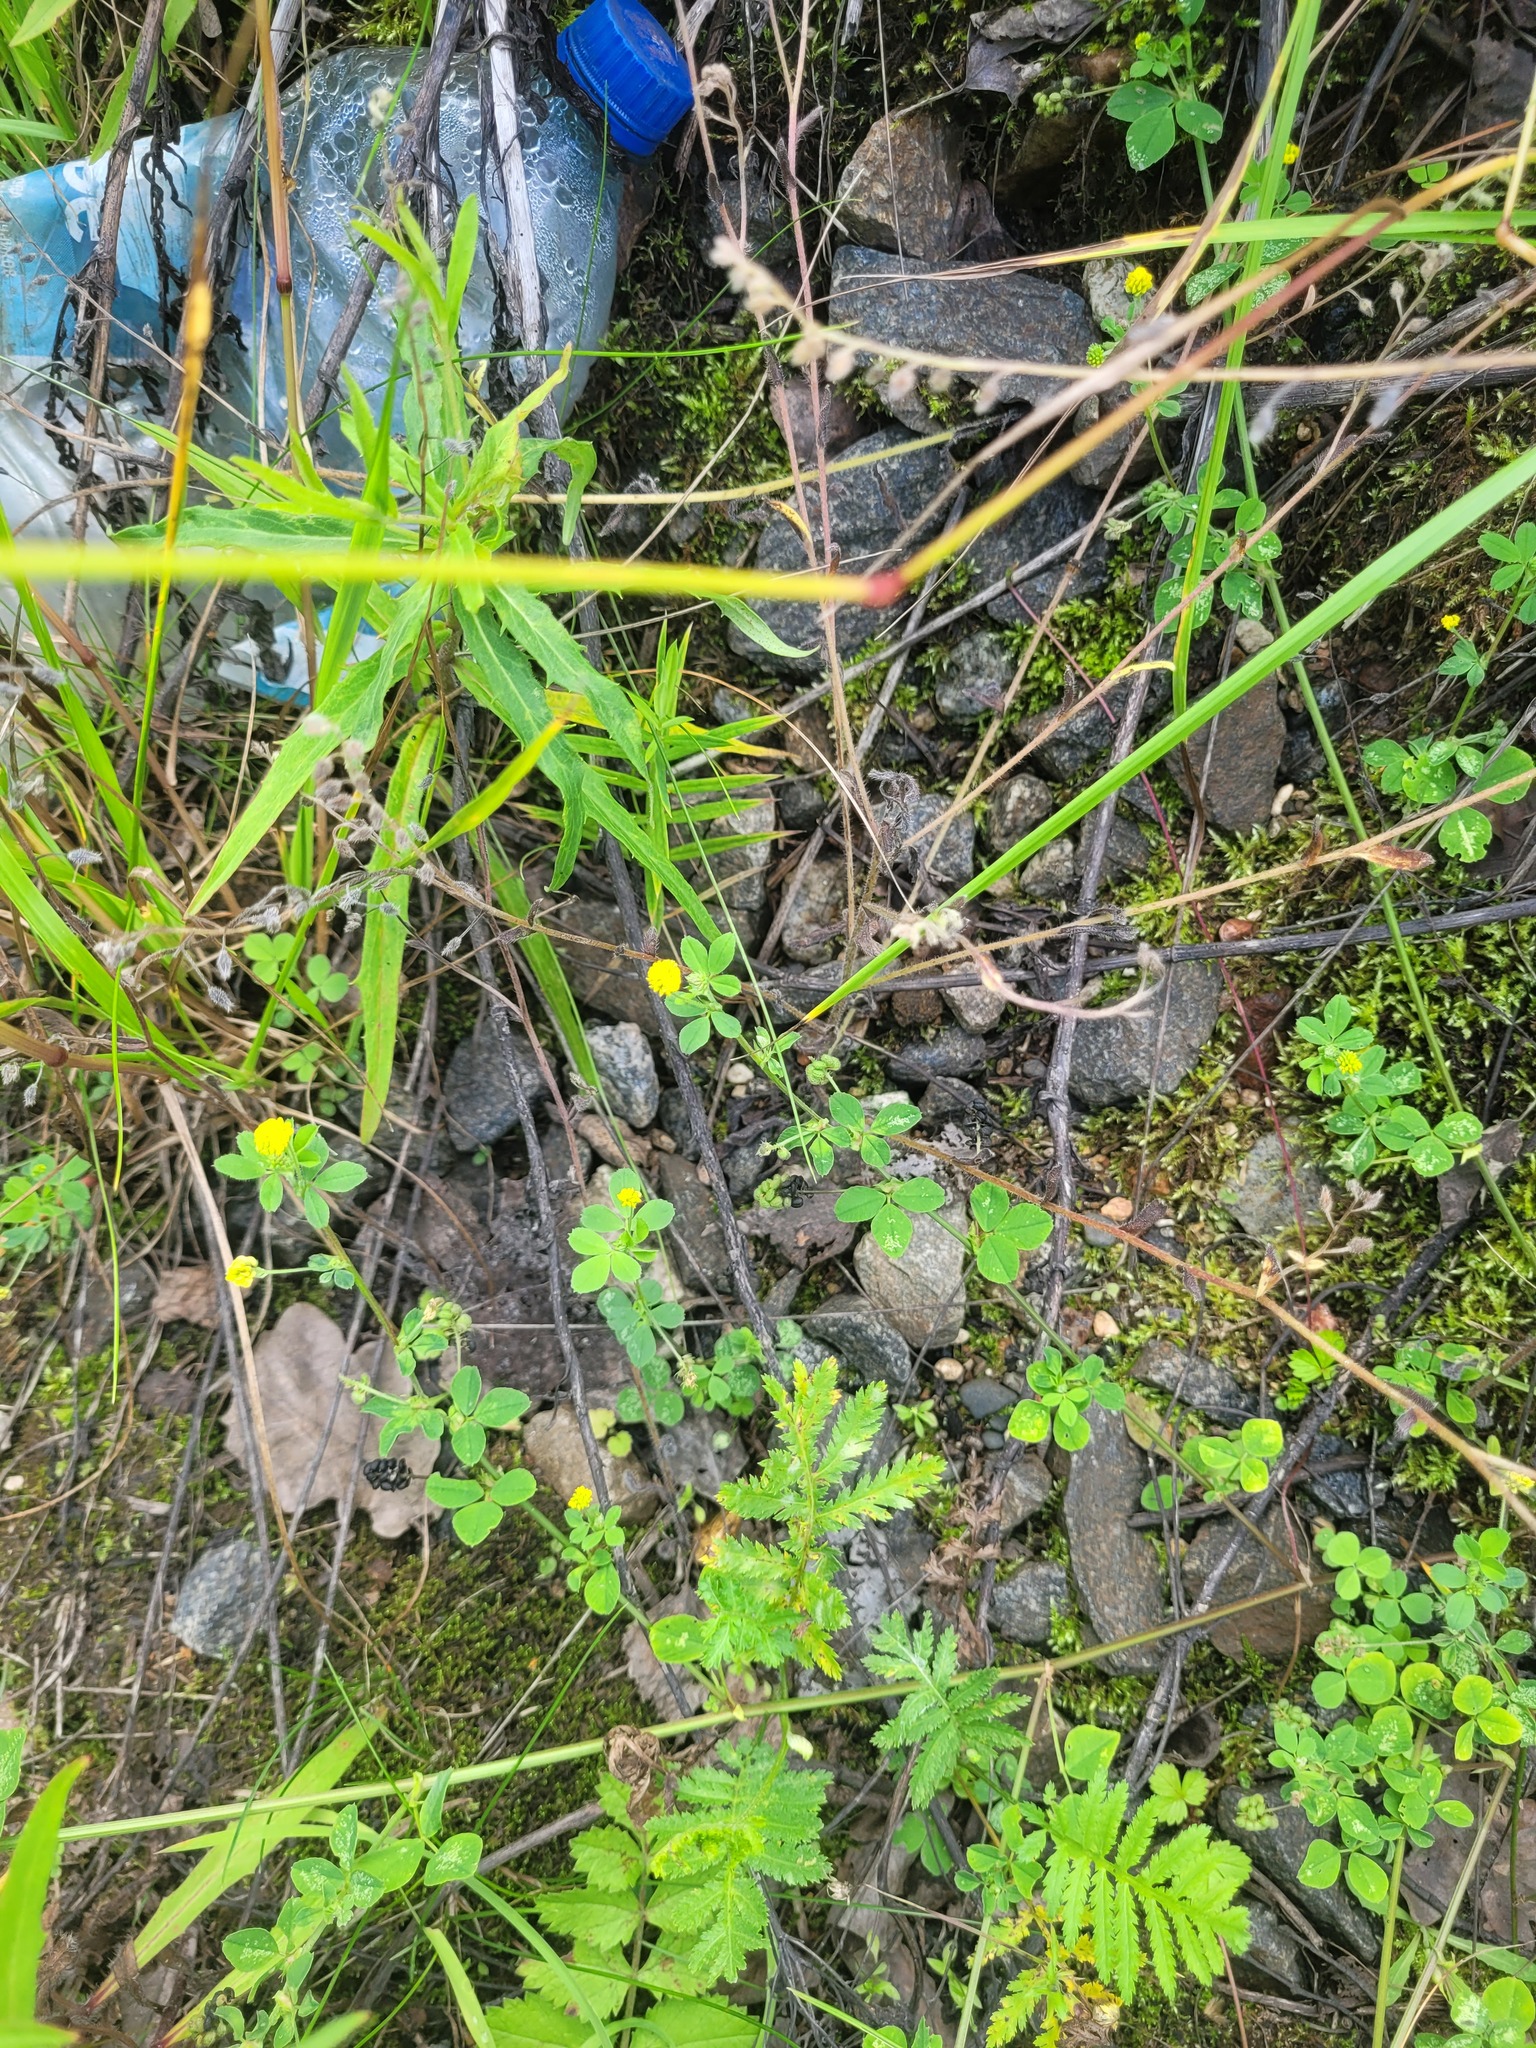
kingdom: Plantae
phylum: Tracheophyta
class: Magnoliopsida
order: Fabales
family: Fabaceae
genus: Medicago
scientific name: Medicago lupulina
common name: Black medick
